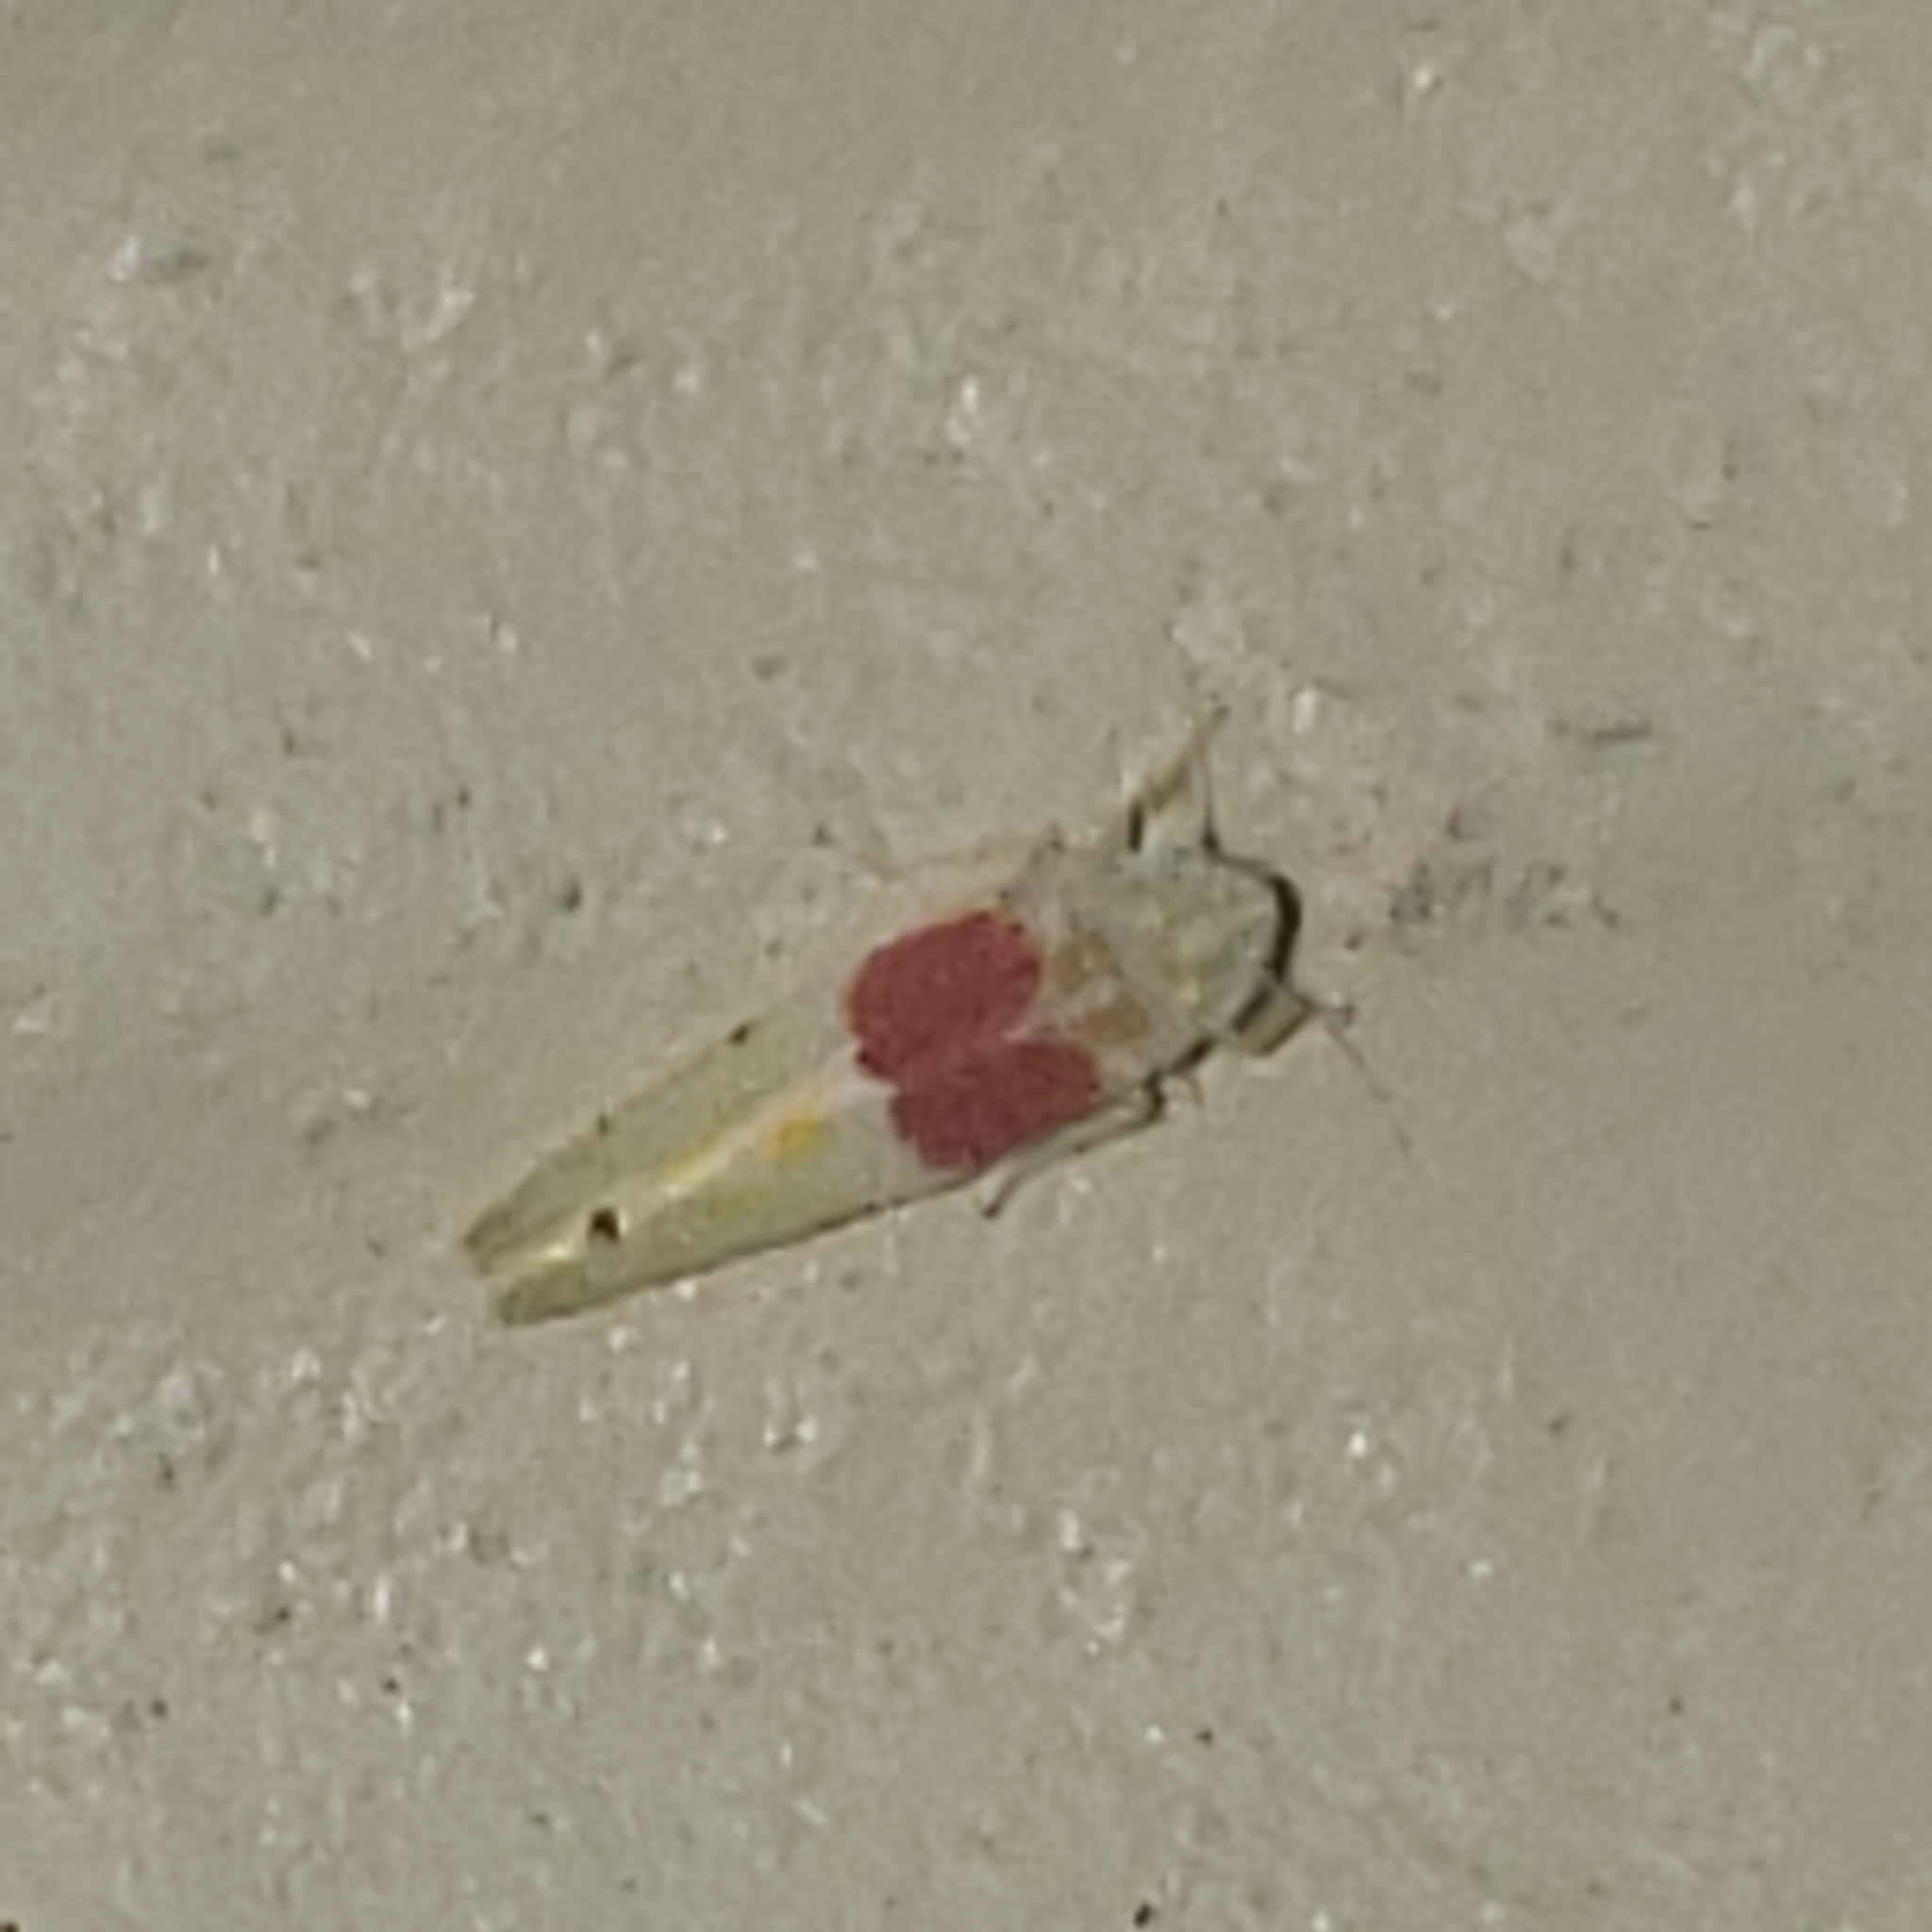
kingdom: Animalia
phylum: Arthropoda
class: Insecta
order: Hemiptera
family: Cicadellidae
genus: Eratoneura
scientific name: Eratoneura osborni
